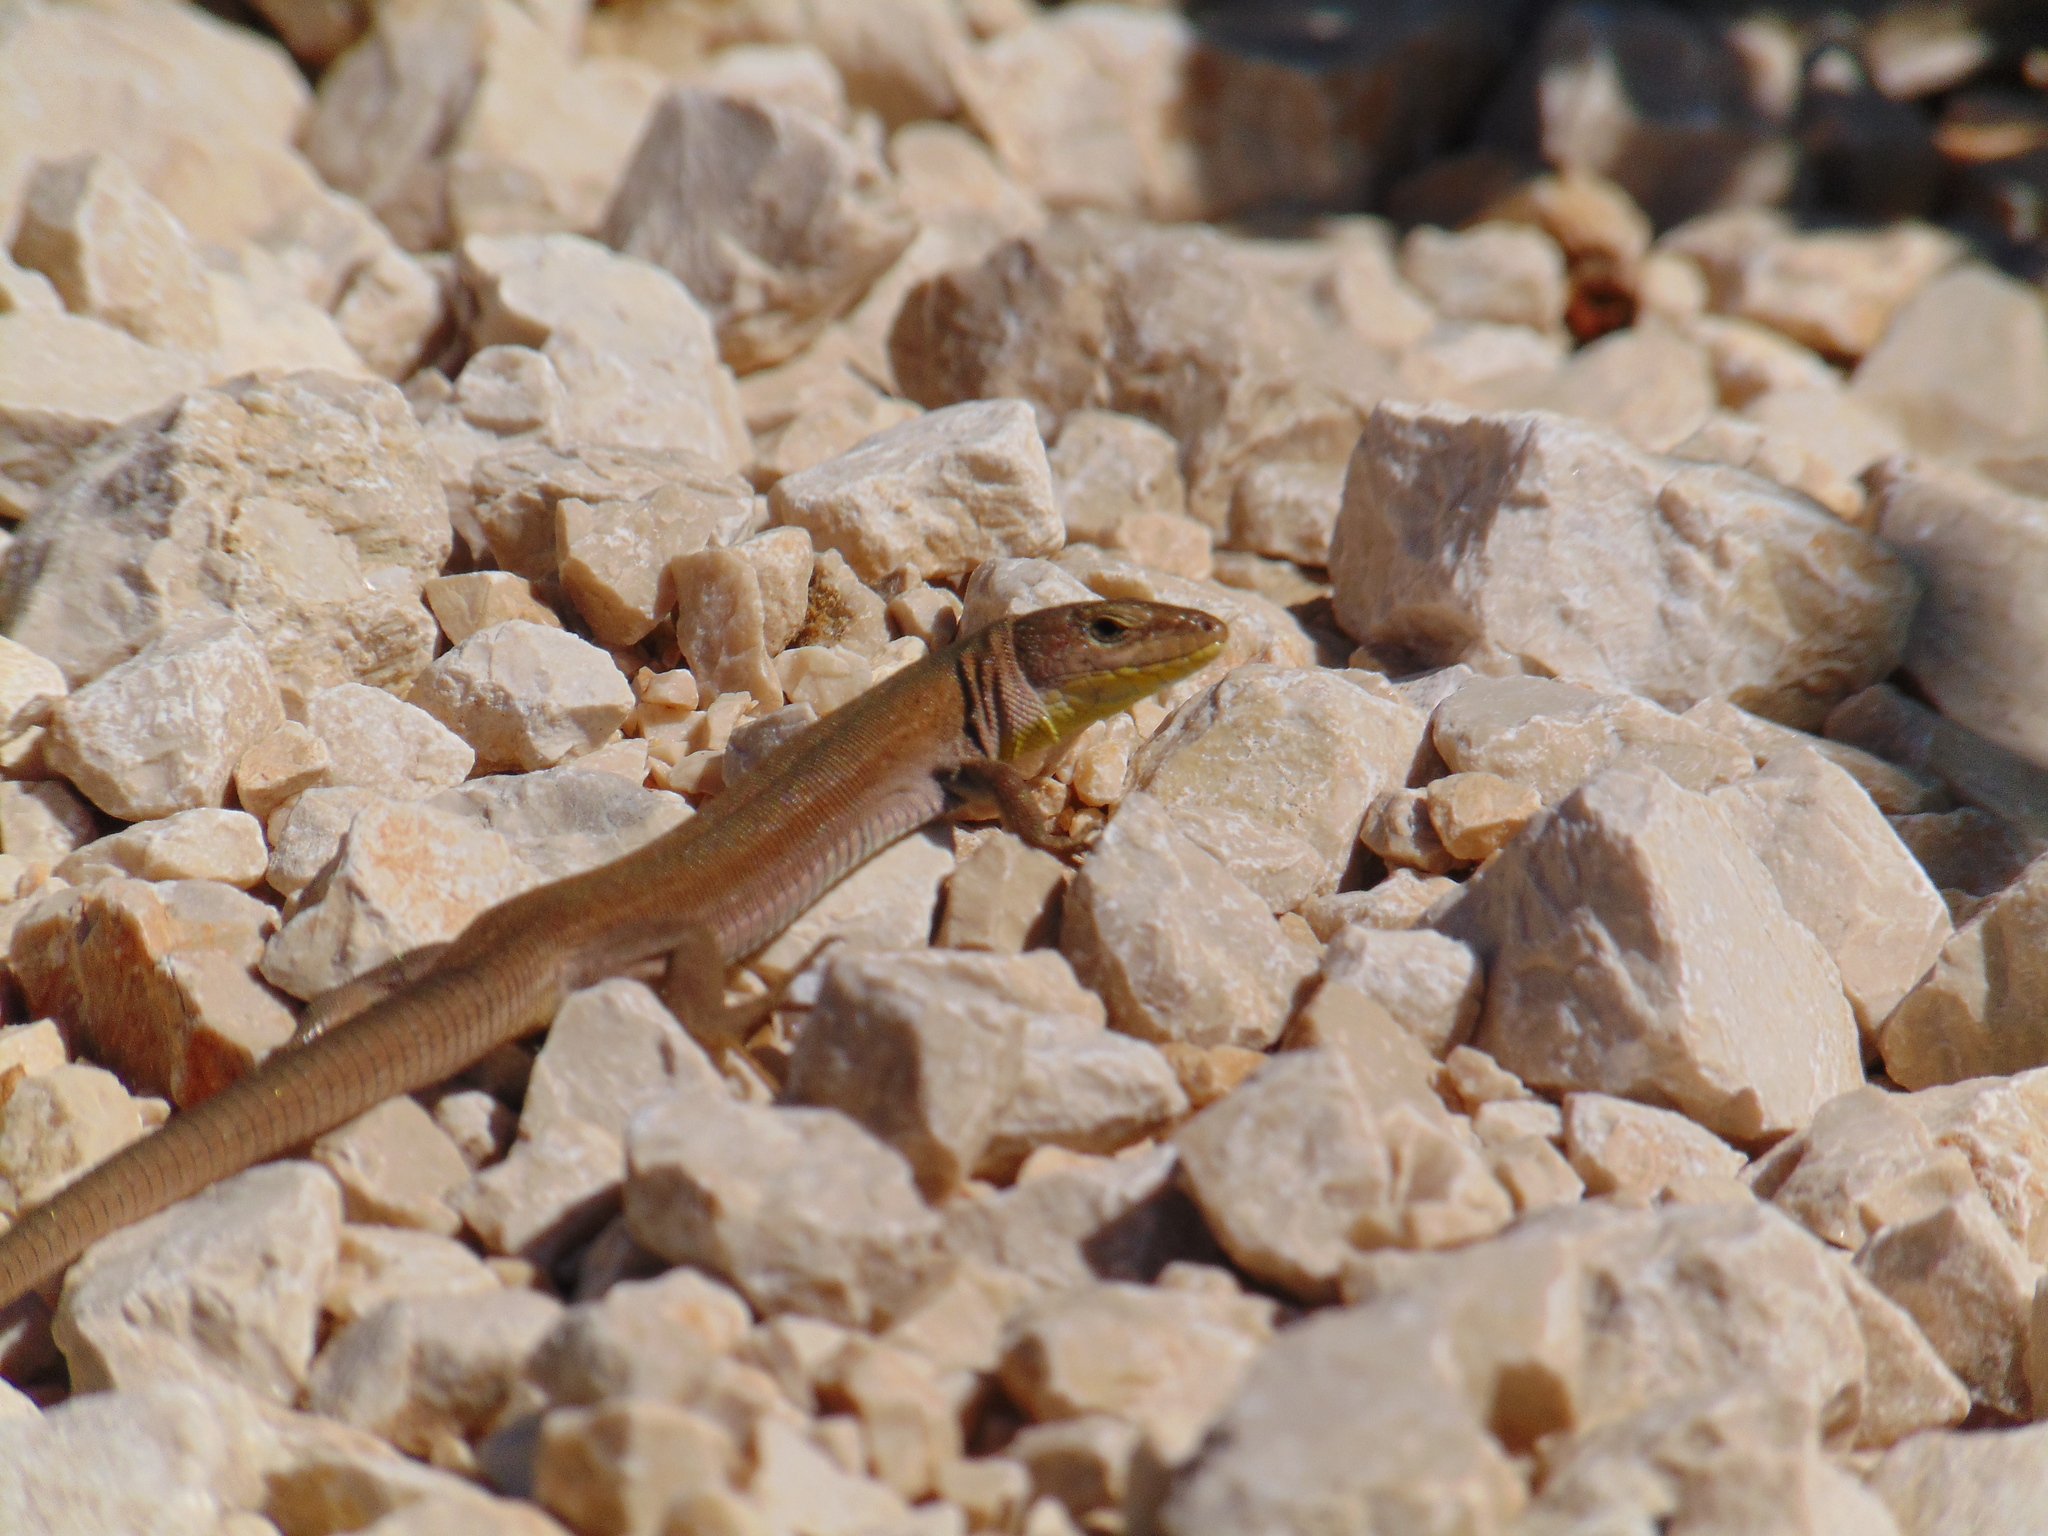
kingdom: Animalia
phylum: Chordata
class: Squamata
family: Lacertidae
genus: Podarcis
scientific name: Podarcis melisellensis
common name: Dalmatian wall lizard
